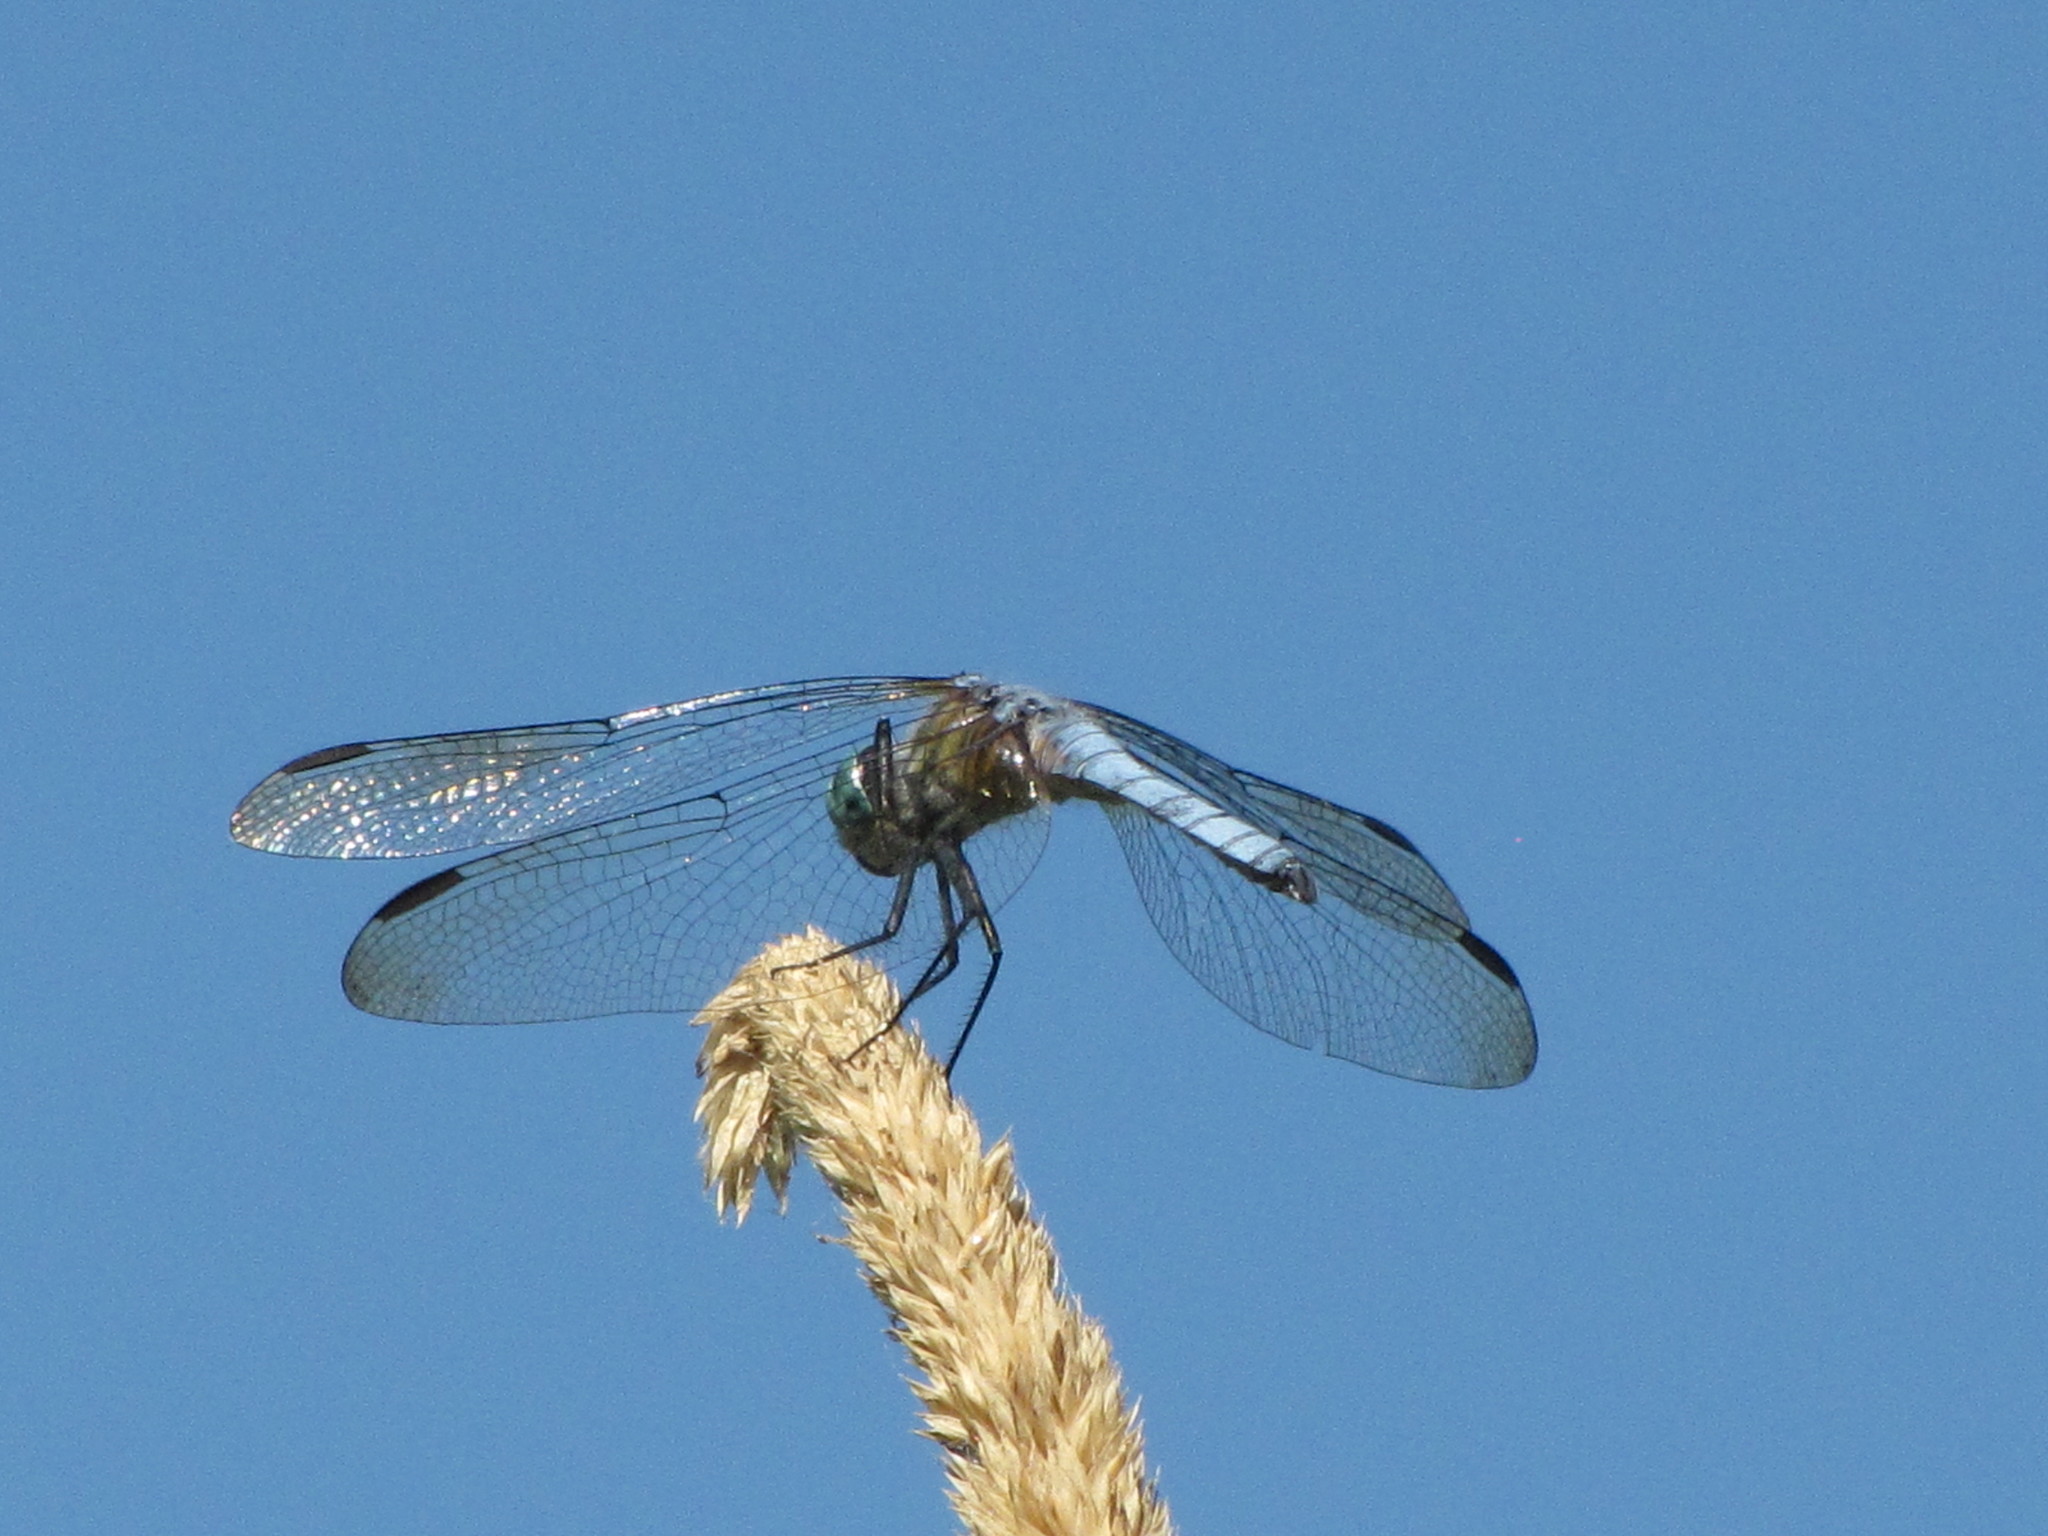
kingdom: Animalia
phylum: Arthropoda
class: Insecta
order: Odonata
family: Libellulidae
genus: Pachydiplax
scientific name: Pachydiplax longipennis
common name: Blue dasher
